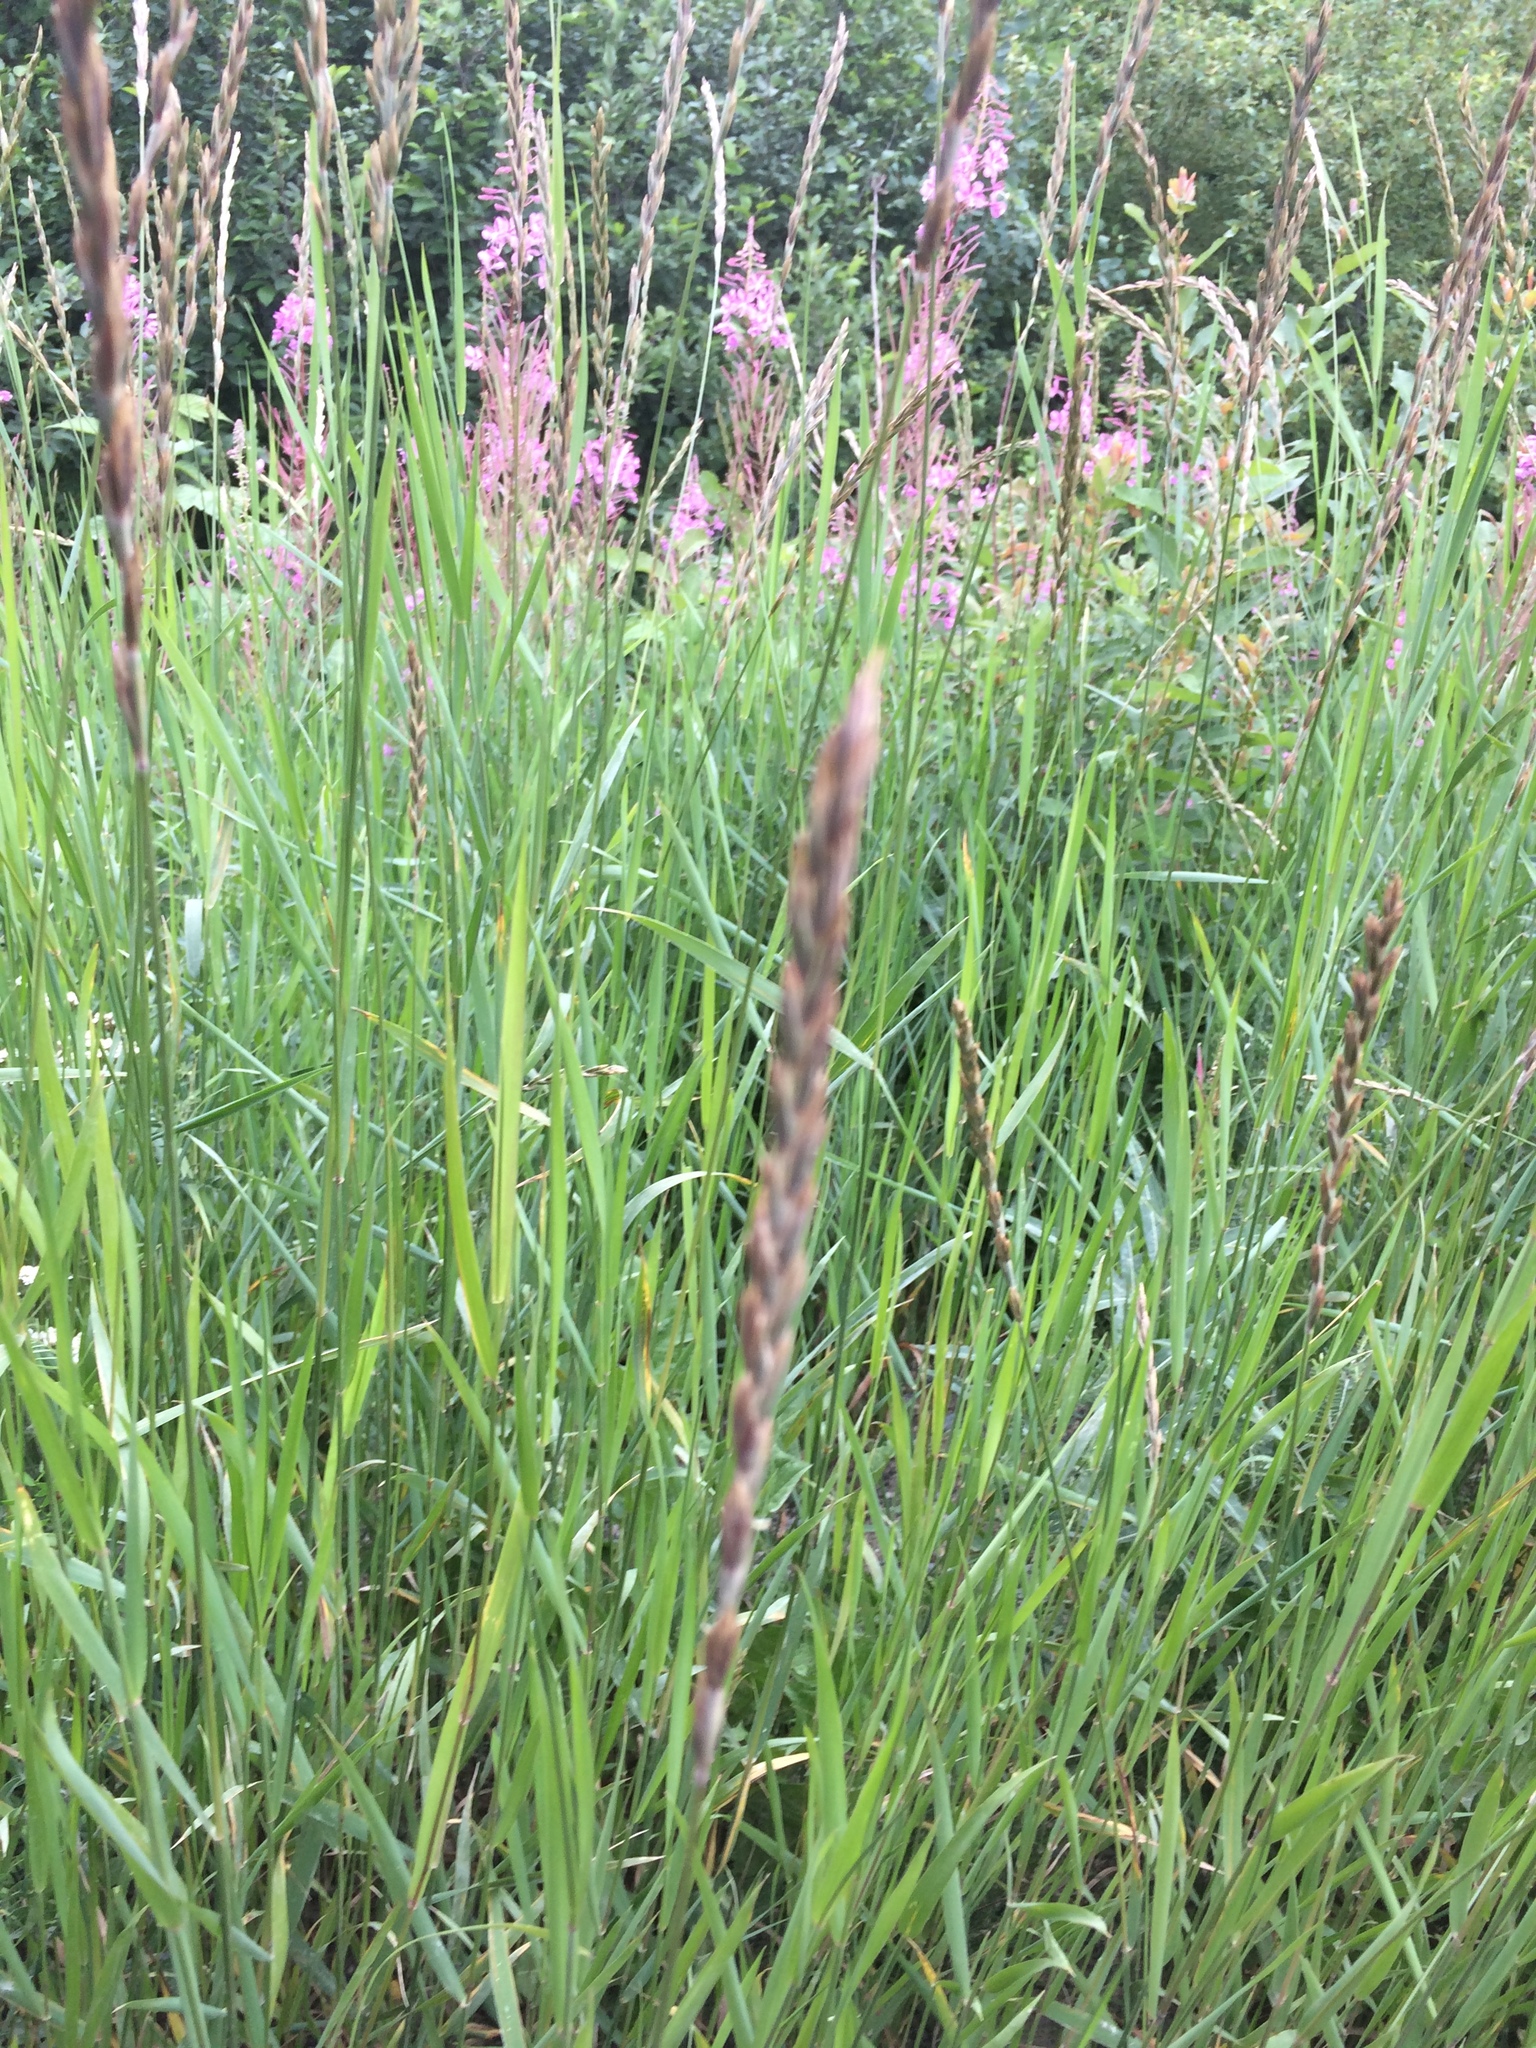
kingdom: Plantae
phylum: Tracheophyta
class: Liliopsida
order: Poales
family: Poaceae
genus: Elymus
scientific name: Elymus repens
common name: Quackgrass
